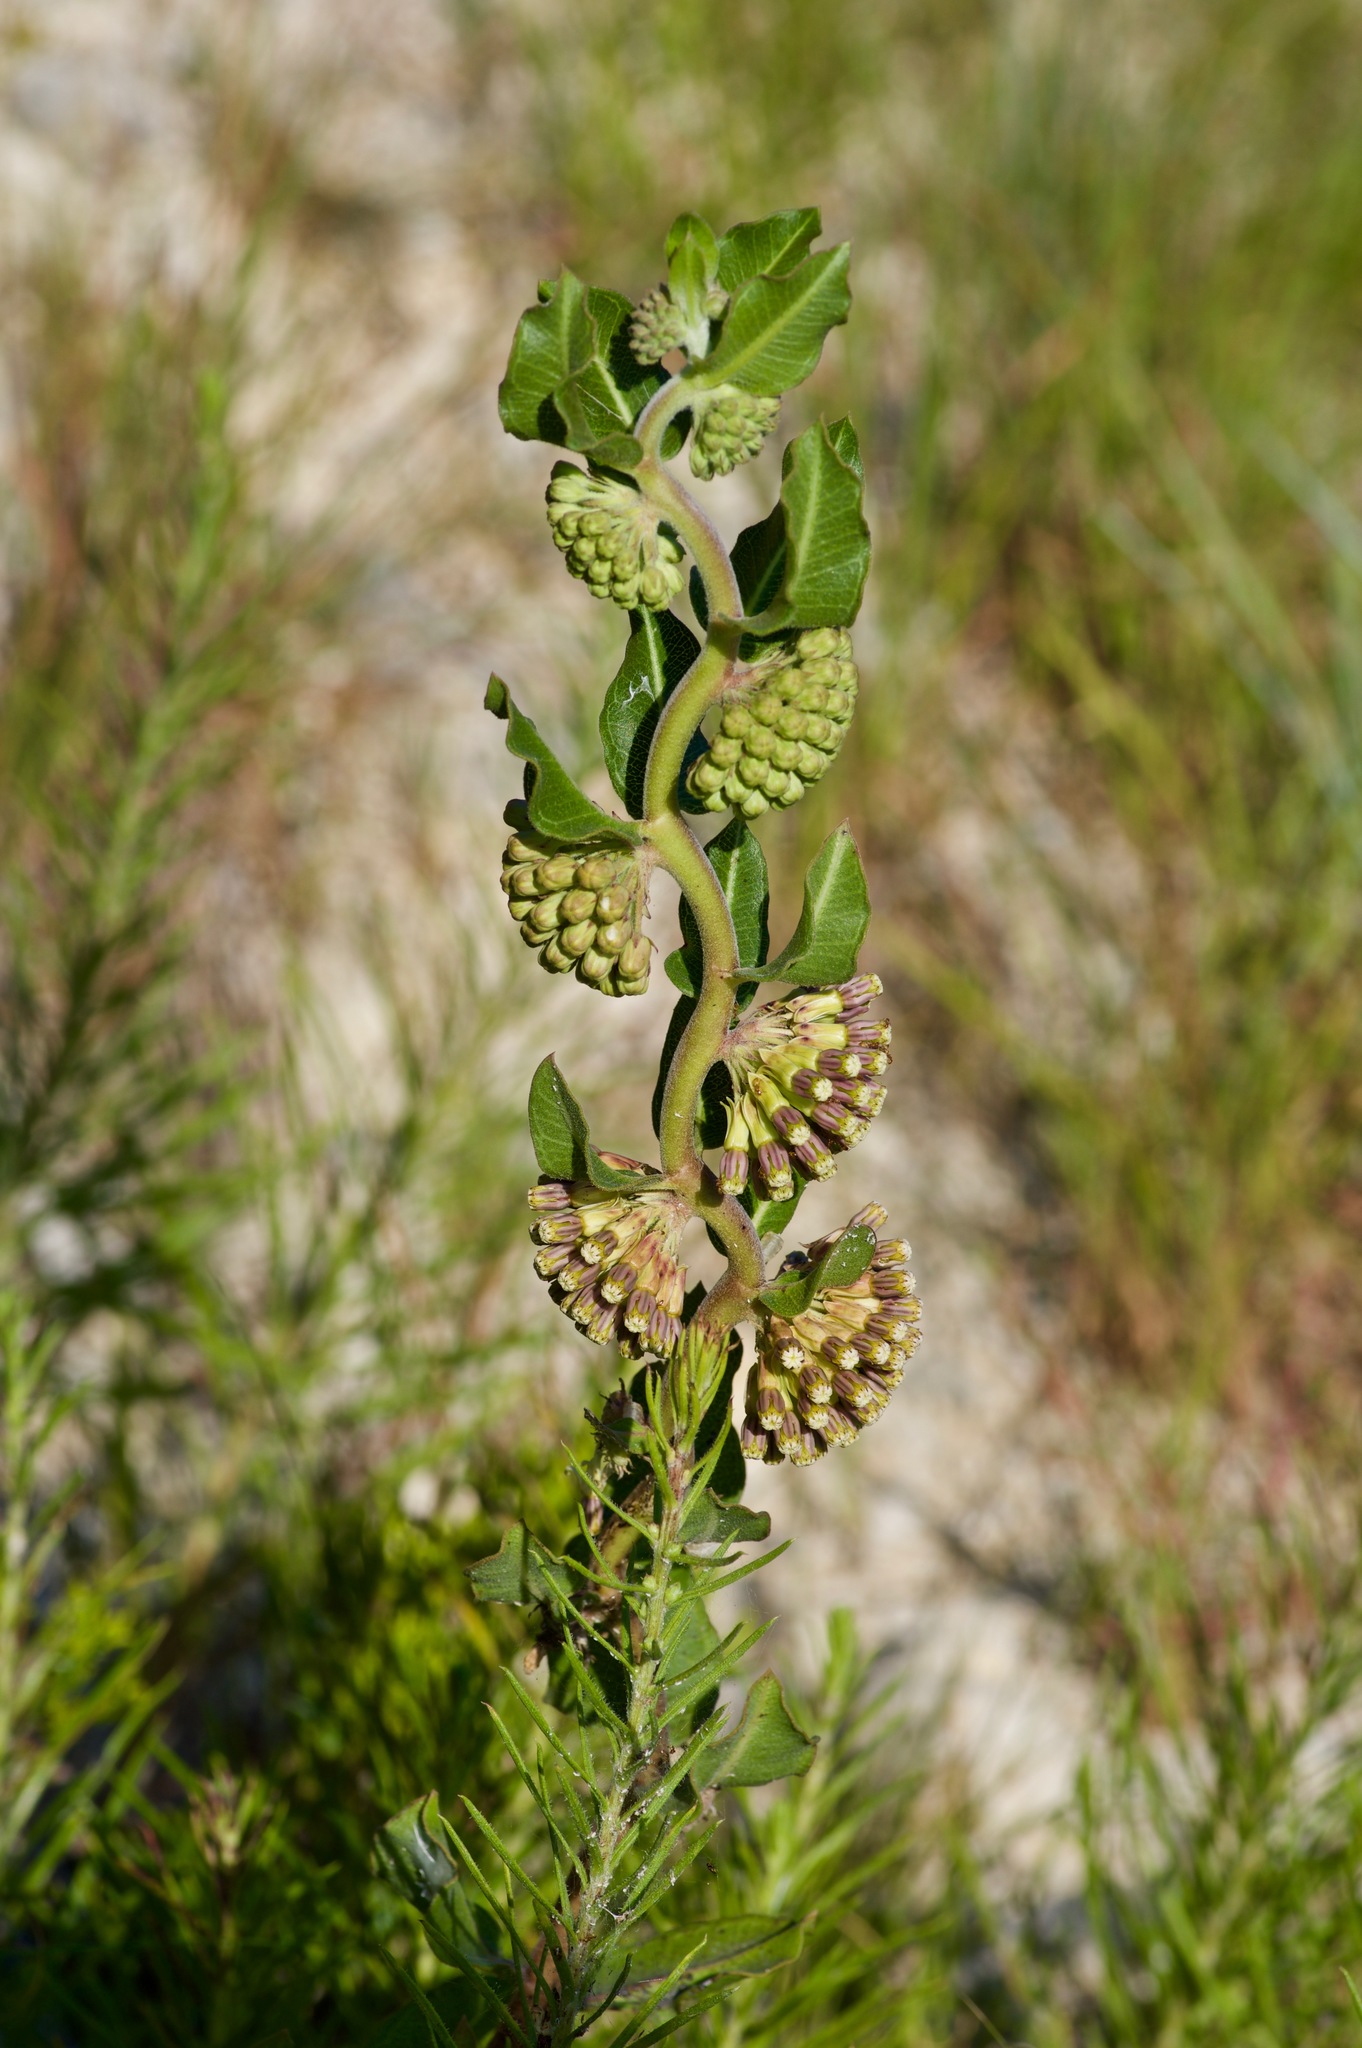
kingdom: Plantae
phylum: Tracheophyta
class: Magnoliopsida
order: Gentianales
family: Apocynaceae
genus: Asclepias
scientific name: Asclepias viridiflora
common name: Green comet milkweed
